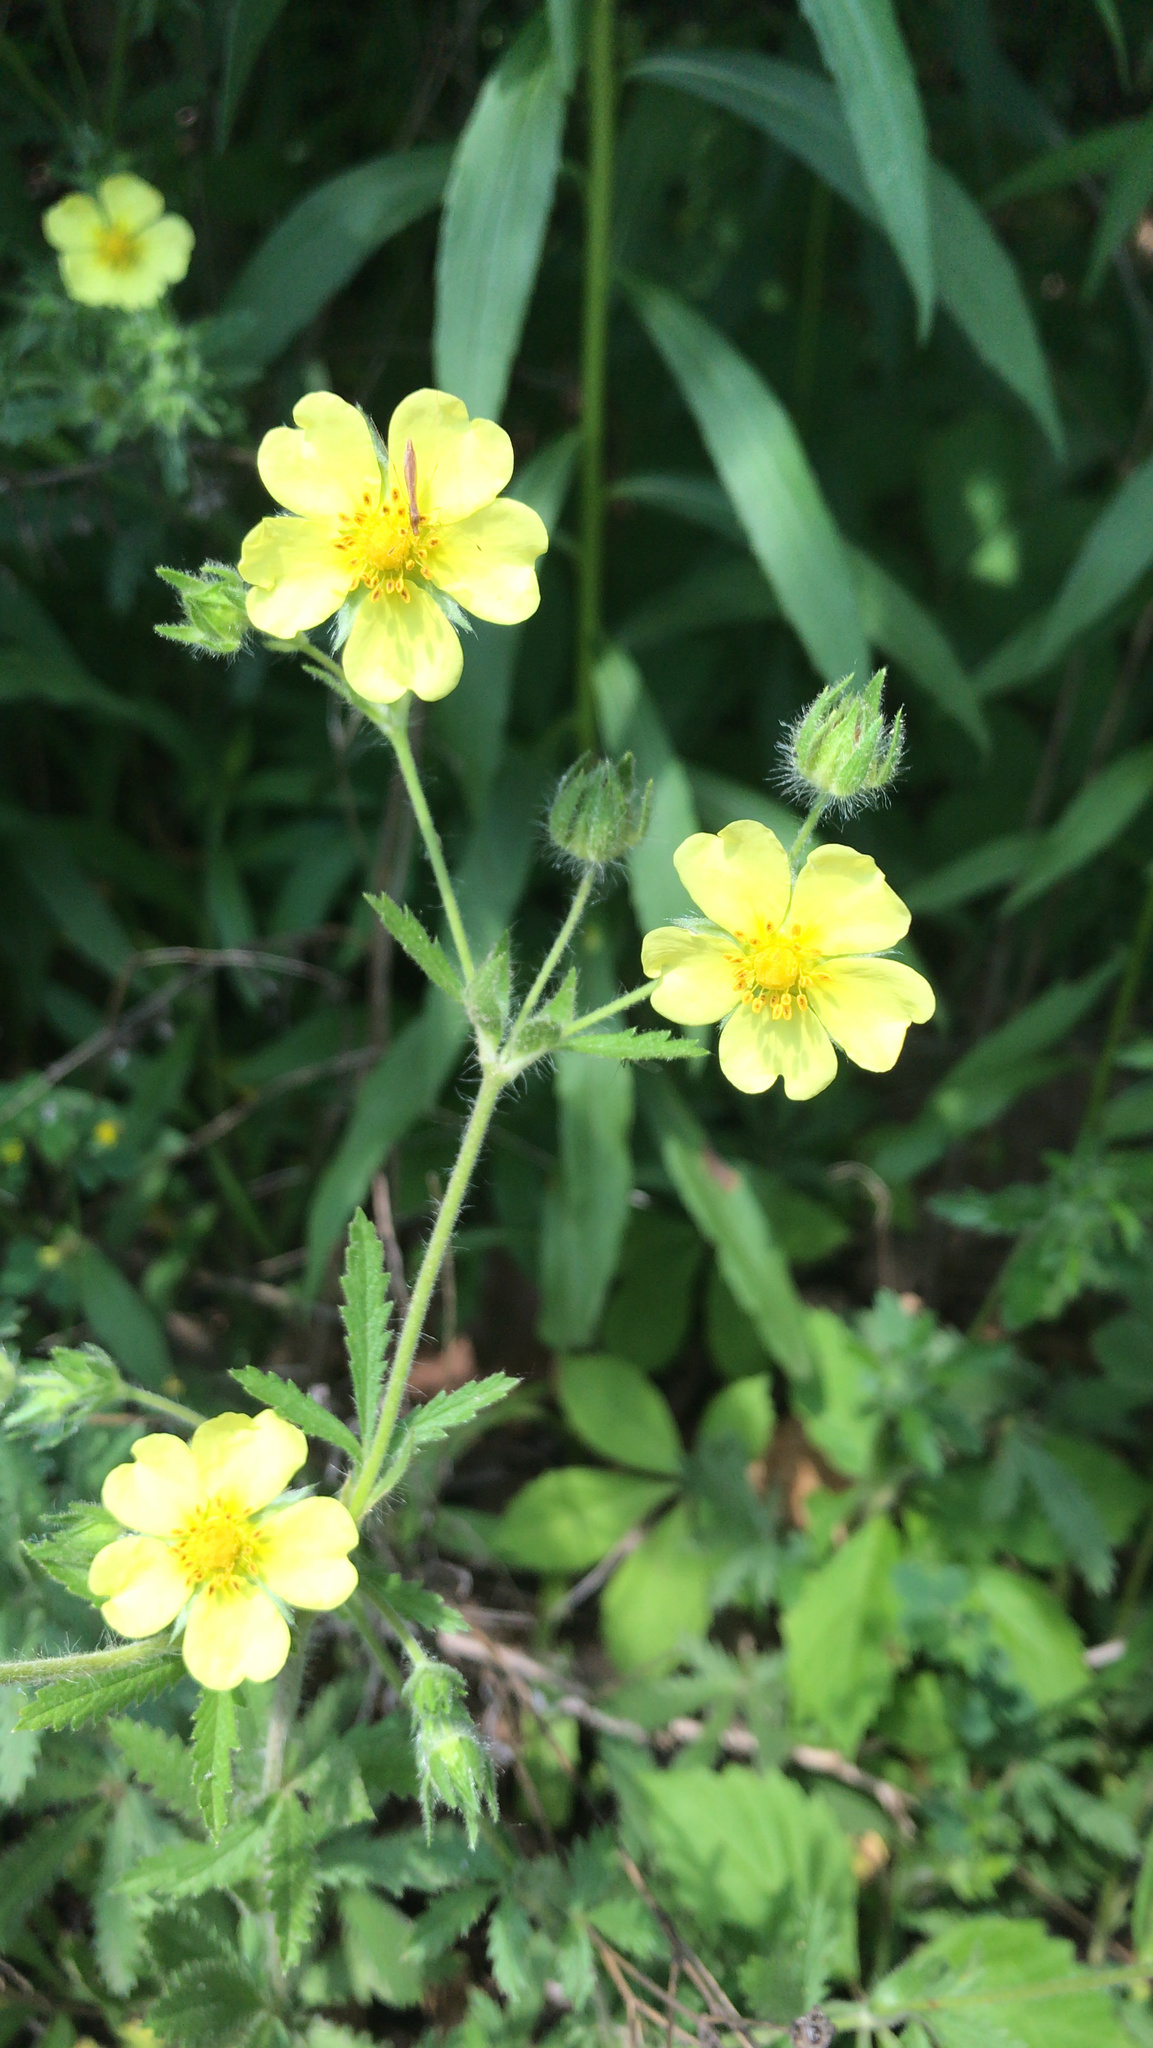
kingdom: Plantae
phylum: Tracheophyta
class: Magnoliopsida
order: Rosales
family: Rosaceae
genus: Potentilla
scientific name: Potentilla recta
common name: Sulphur cinquefoil
